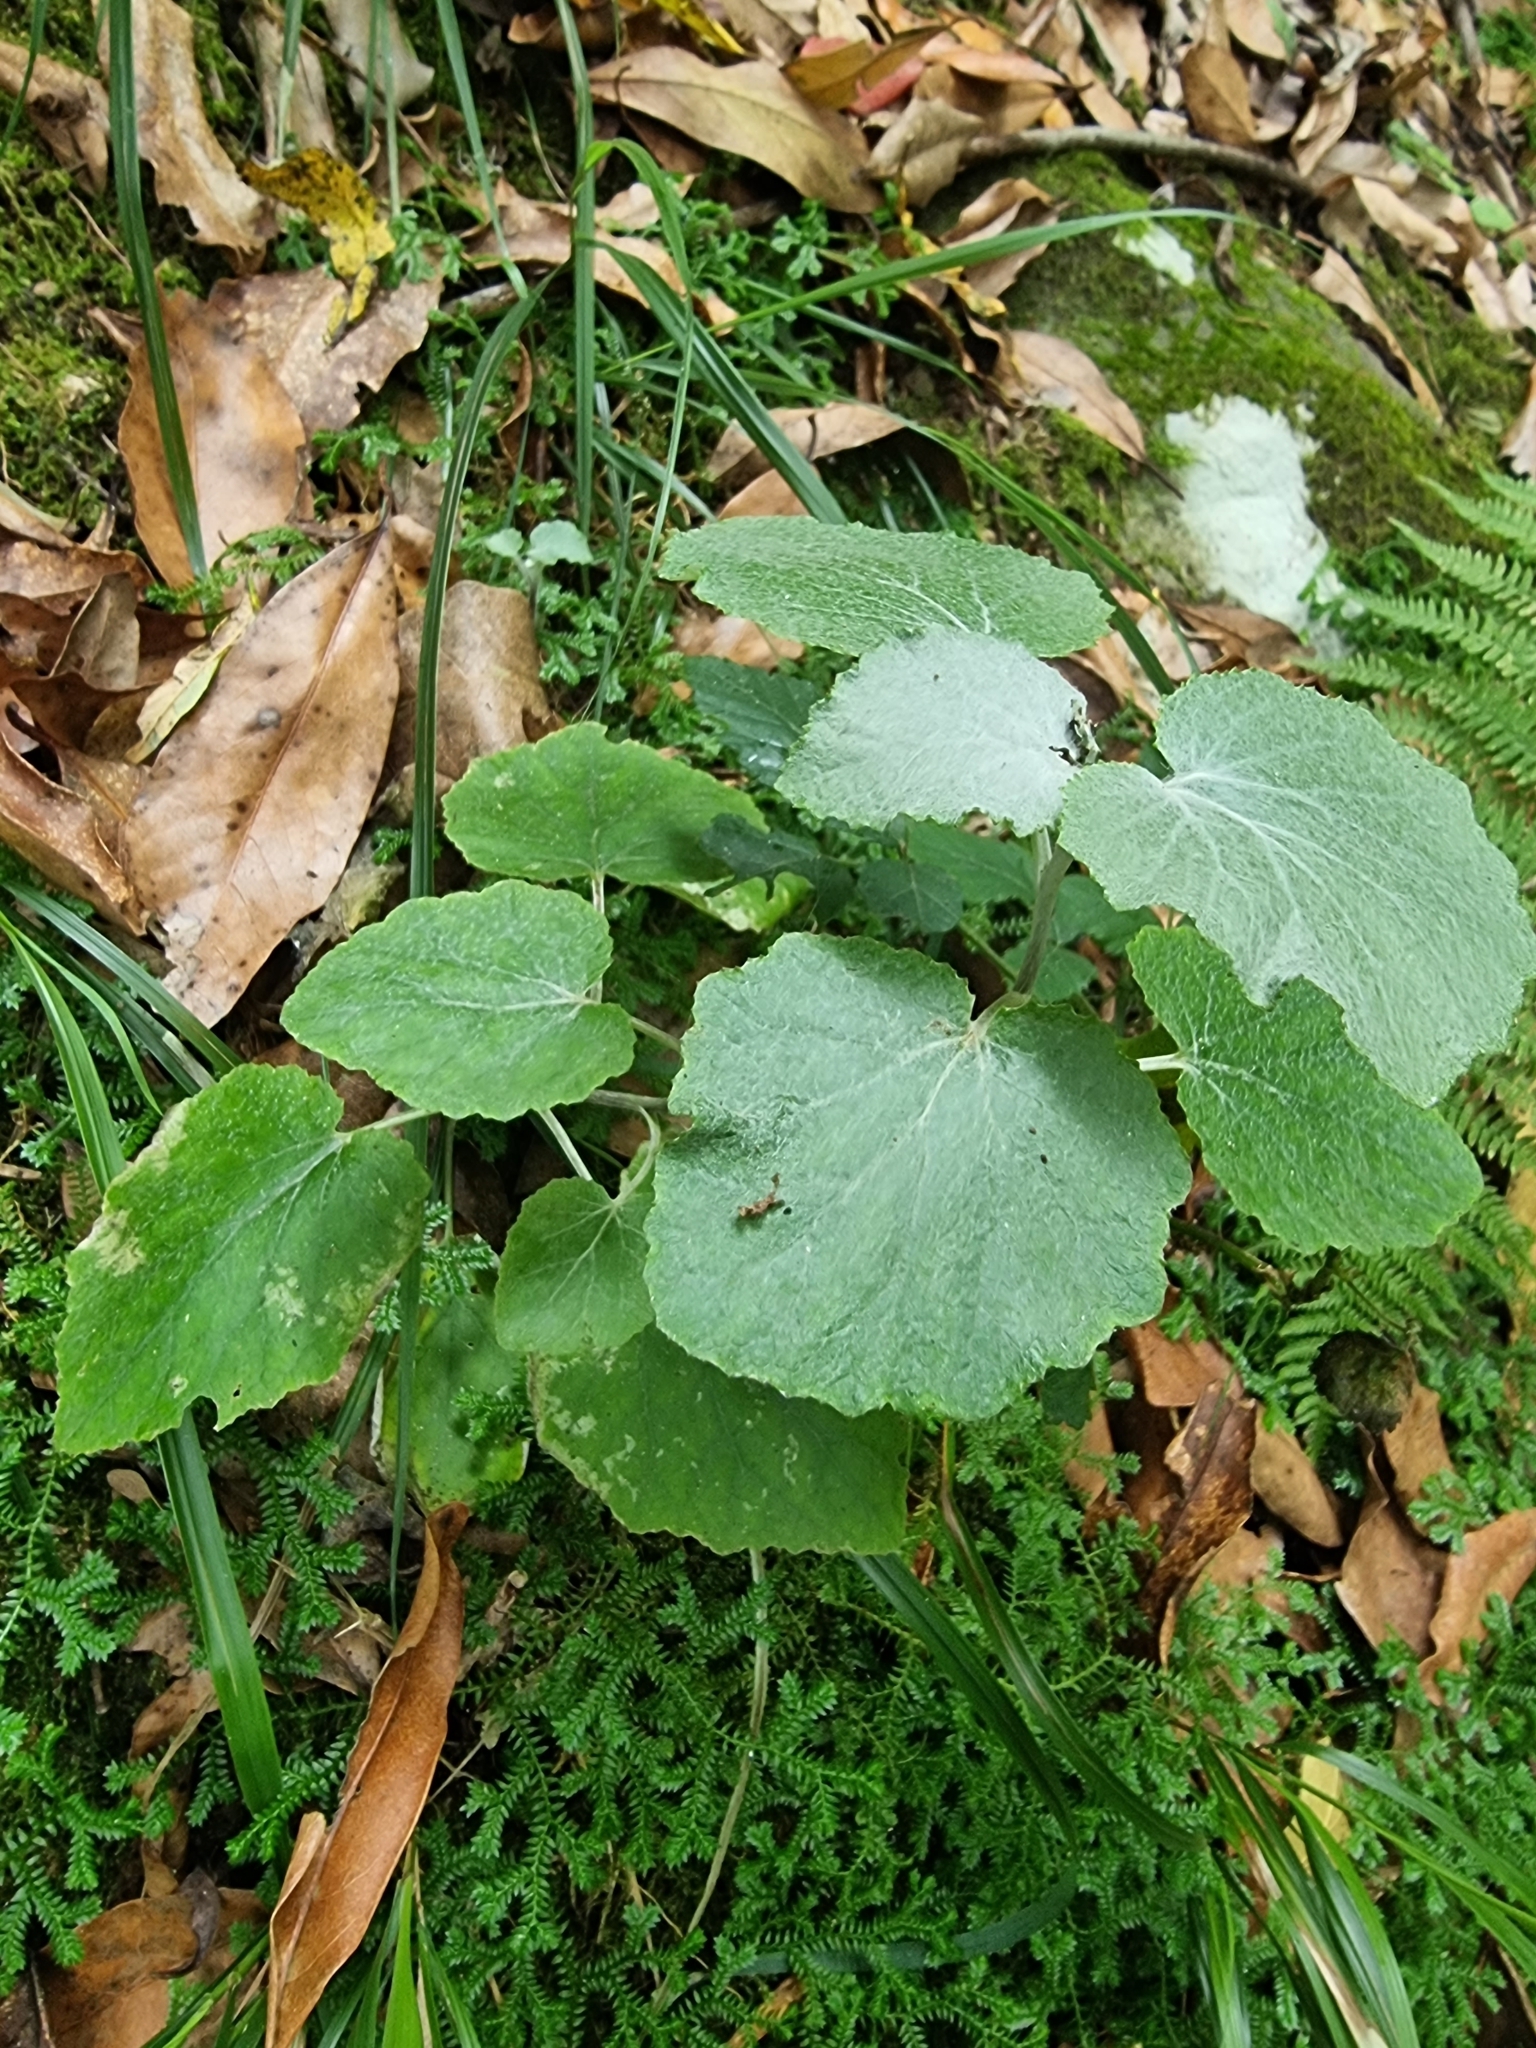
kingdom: Plantae
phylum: Tracheophyta
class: Magnoliopsida
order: Asterales
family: Asteraceae
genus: Pericallis
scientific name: Pericallis aurita
